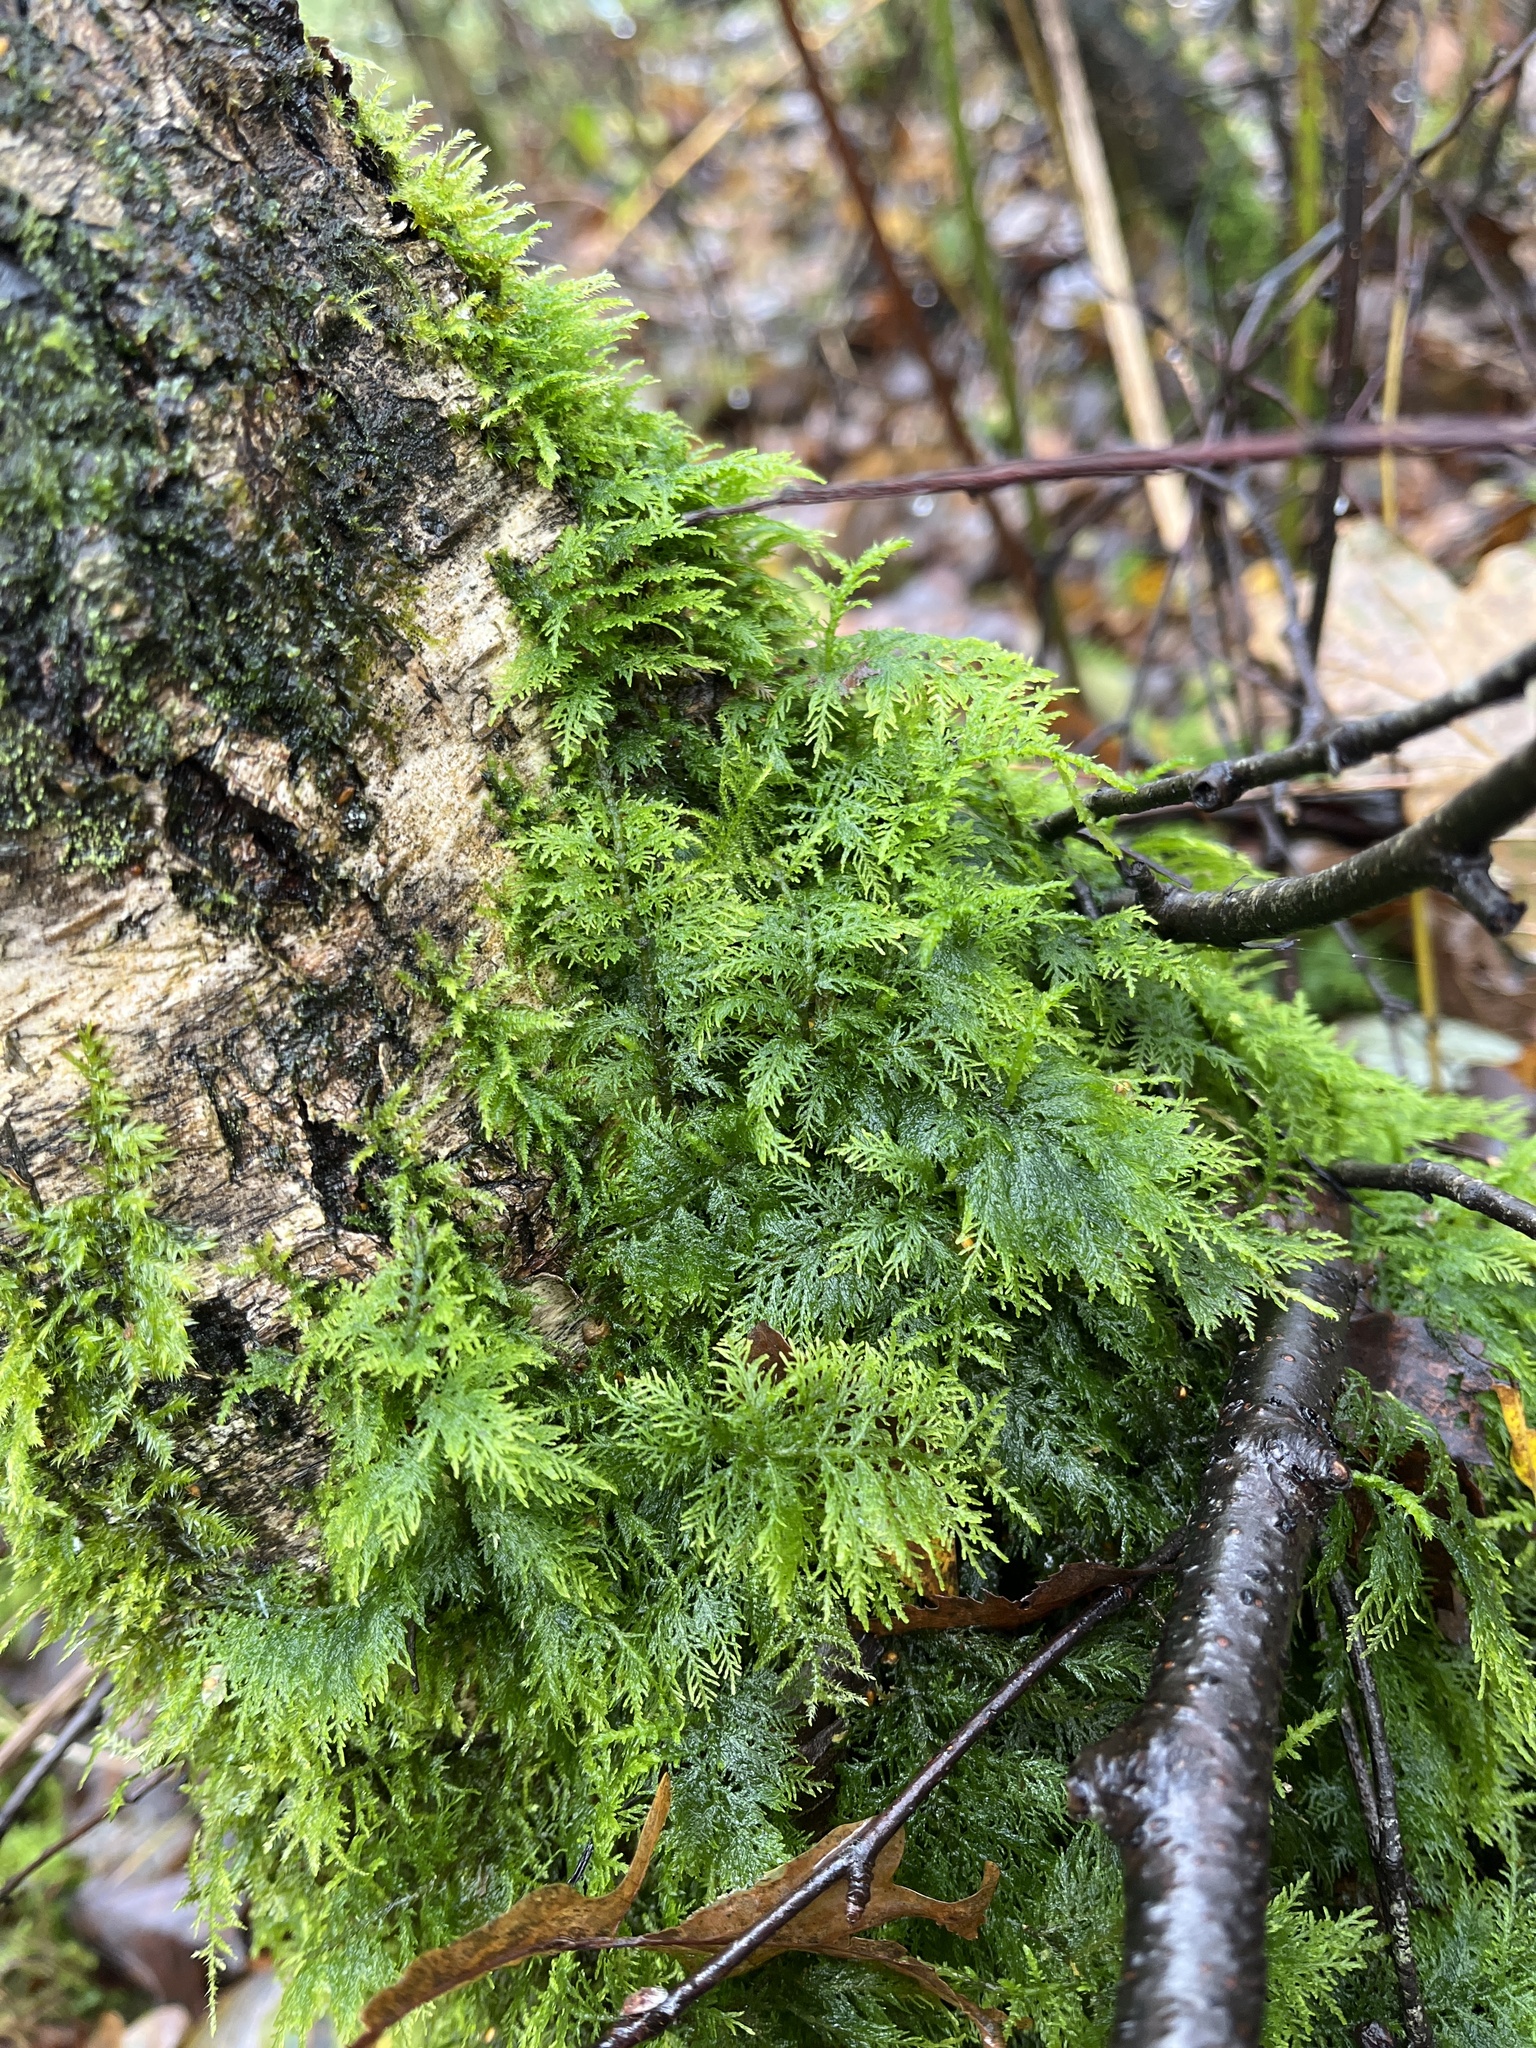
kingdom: Plantae
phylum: Bryophyta
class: Bryopsida
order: Hypnales
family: Thuidiaceae
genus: Thuidium
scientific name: Thuidium tamariscinum
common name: Common tamarisk-moss
